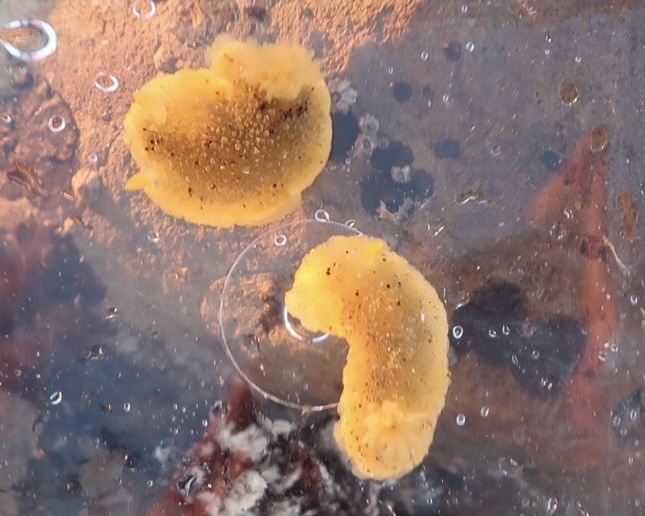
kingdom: Animalia
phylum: Mollusca
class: Gastropoda
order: Nudibranchia
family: Dorididae
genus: Doris
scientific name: Doris montereyensis
